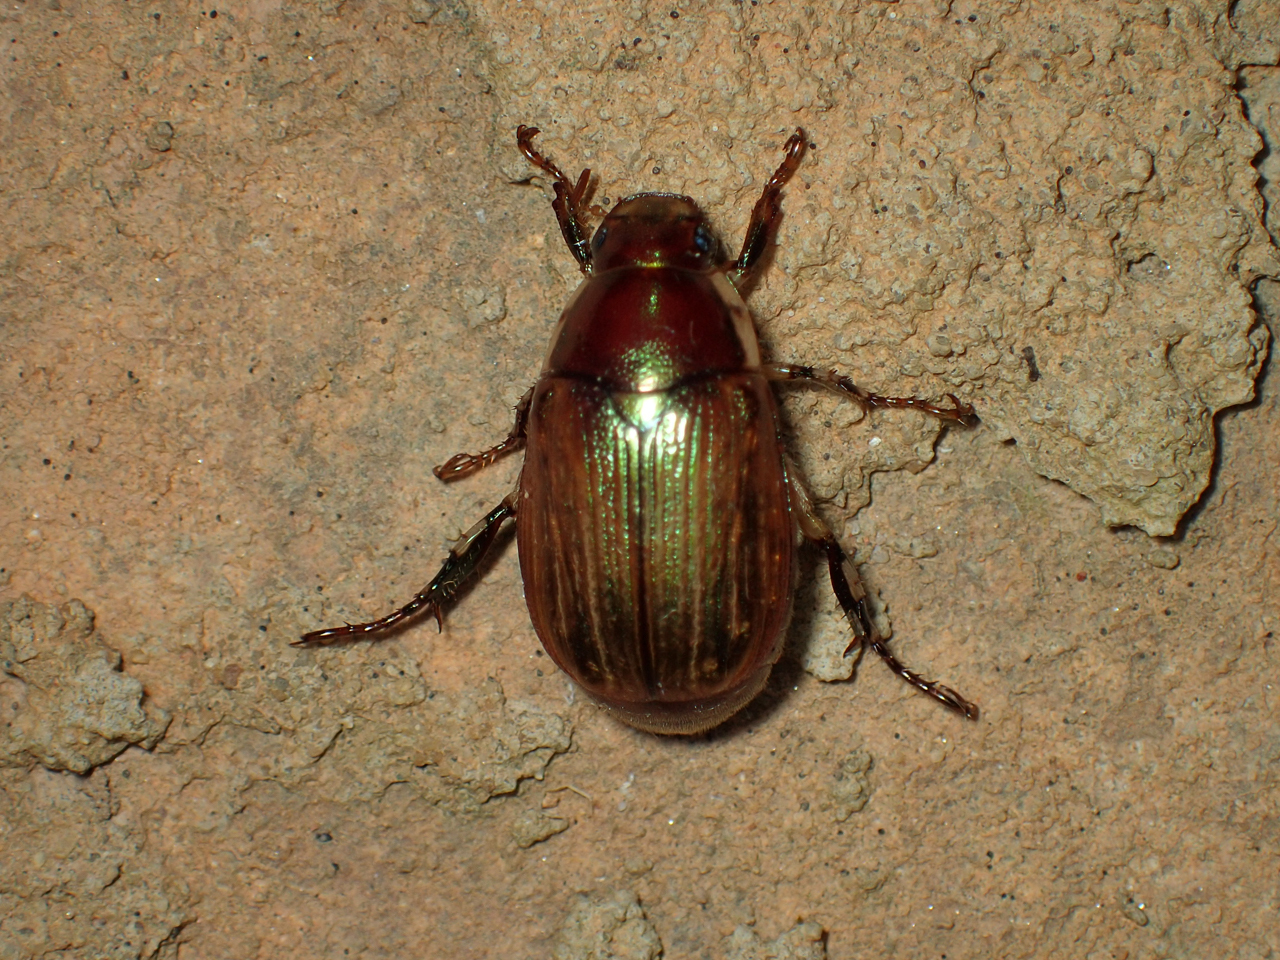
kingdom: Animalia
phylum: Arthropoda
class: Insecta
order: Coleoptera
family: Scarabaeidae
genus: Callistethus
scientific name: Callistethus marginatus
